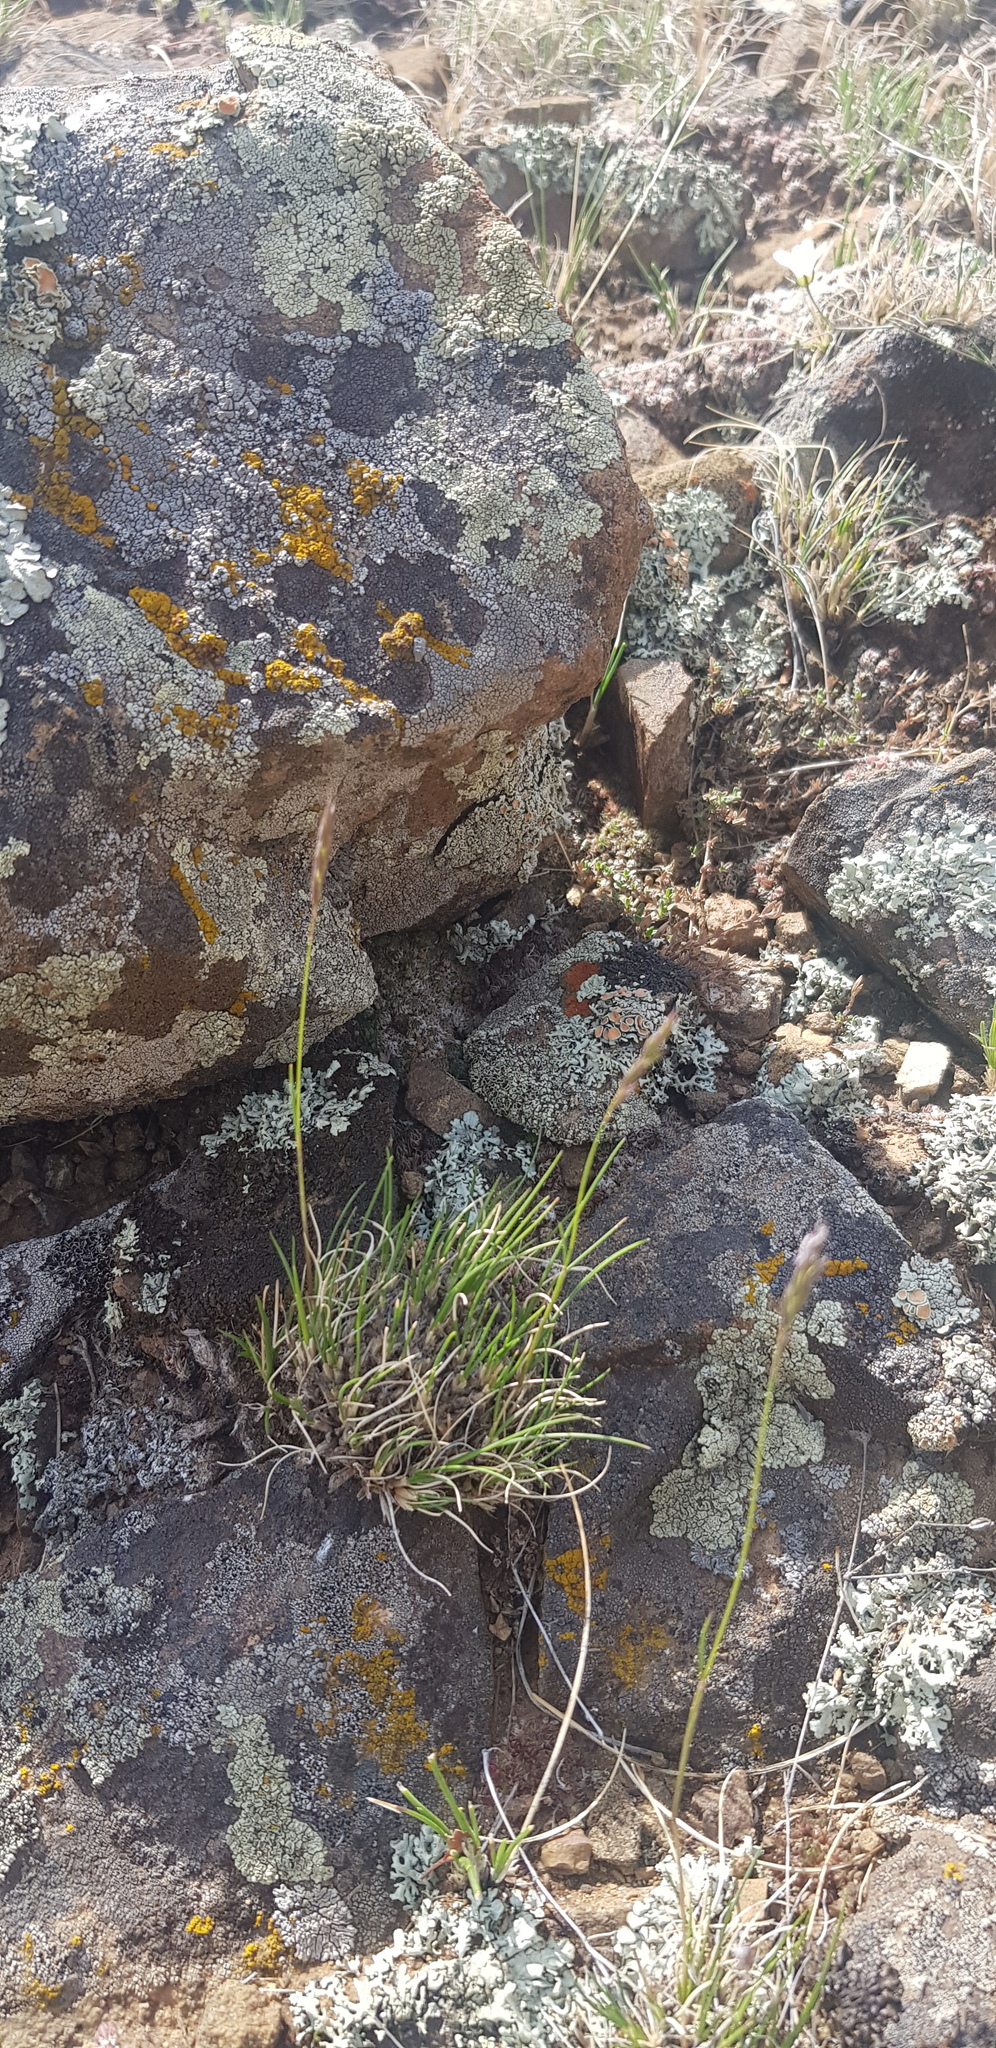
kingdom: Plantae
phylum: Tracheophyta
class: Liliopsida
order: Poales
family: Poaceae
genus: Festuca
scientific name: Festuca lenensis
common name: Lena river fescue
